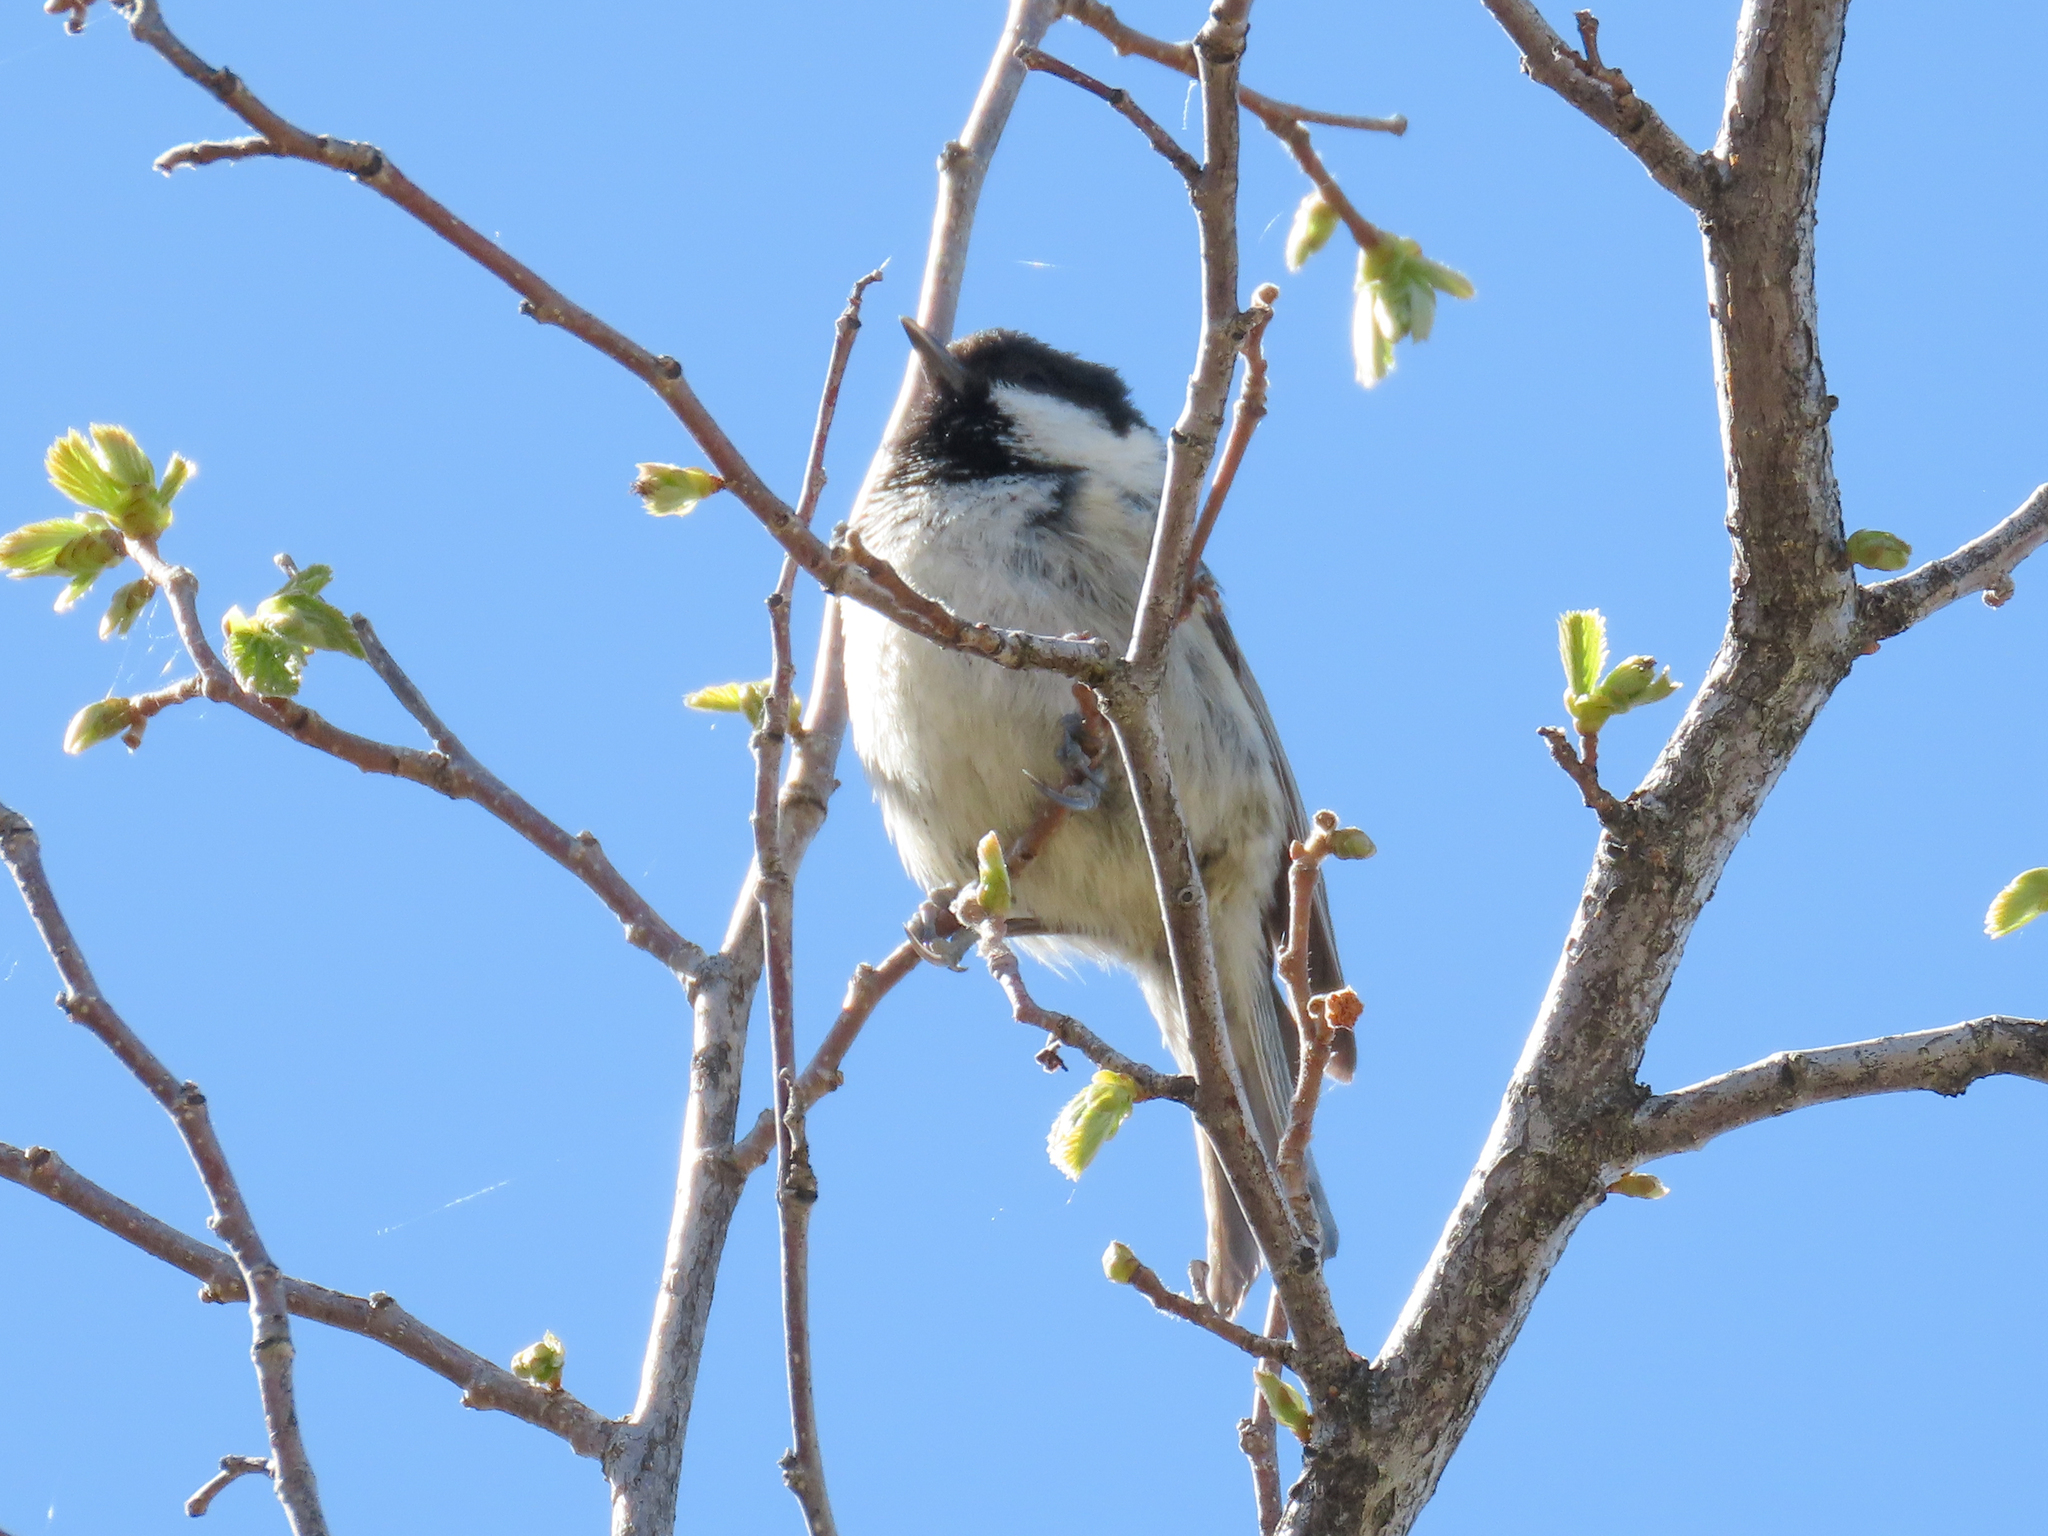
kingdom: Animalia
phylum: Chordata
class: Aves
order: Passeriformes
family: Paridae
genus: Periparus
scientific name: Periparus ater
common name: Coal tit
